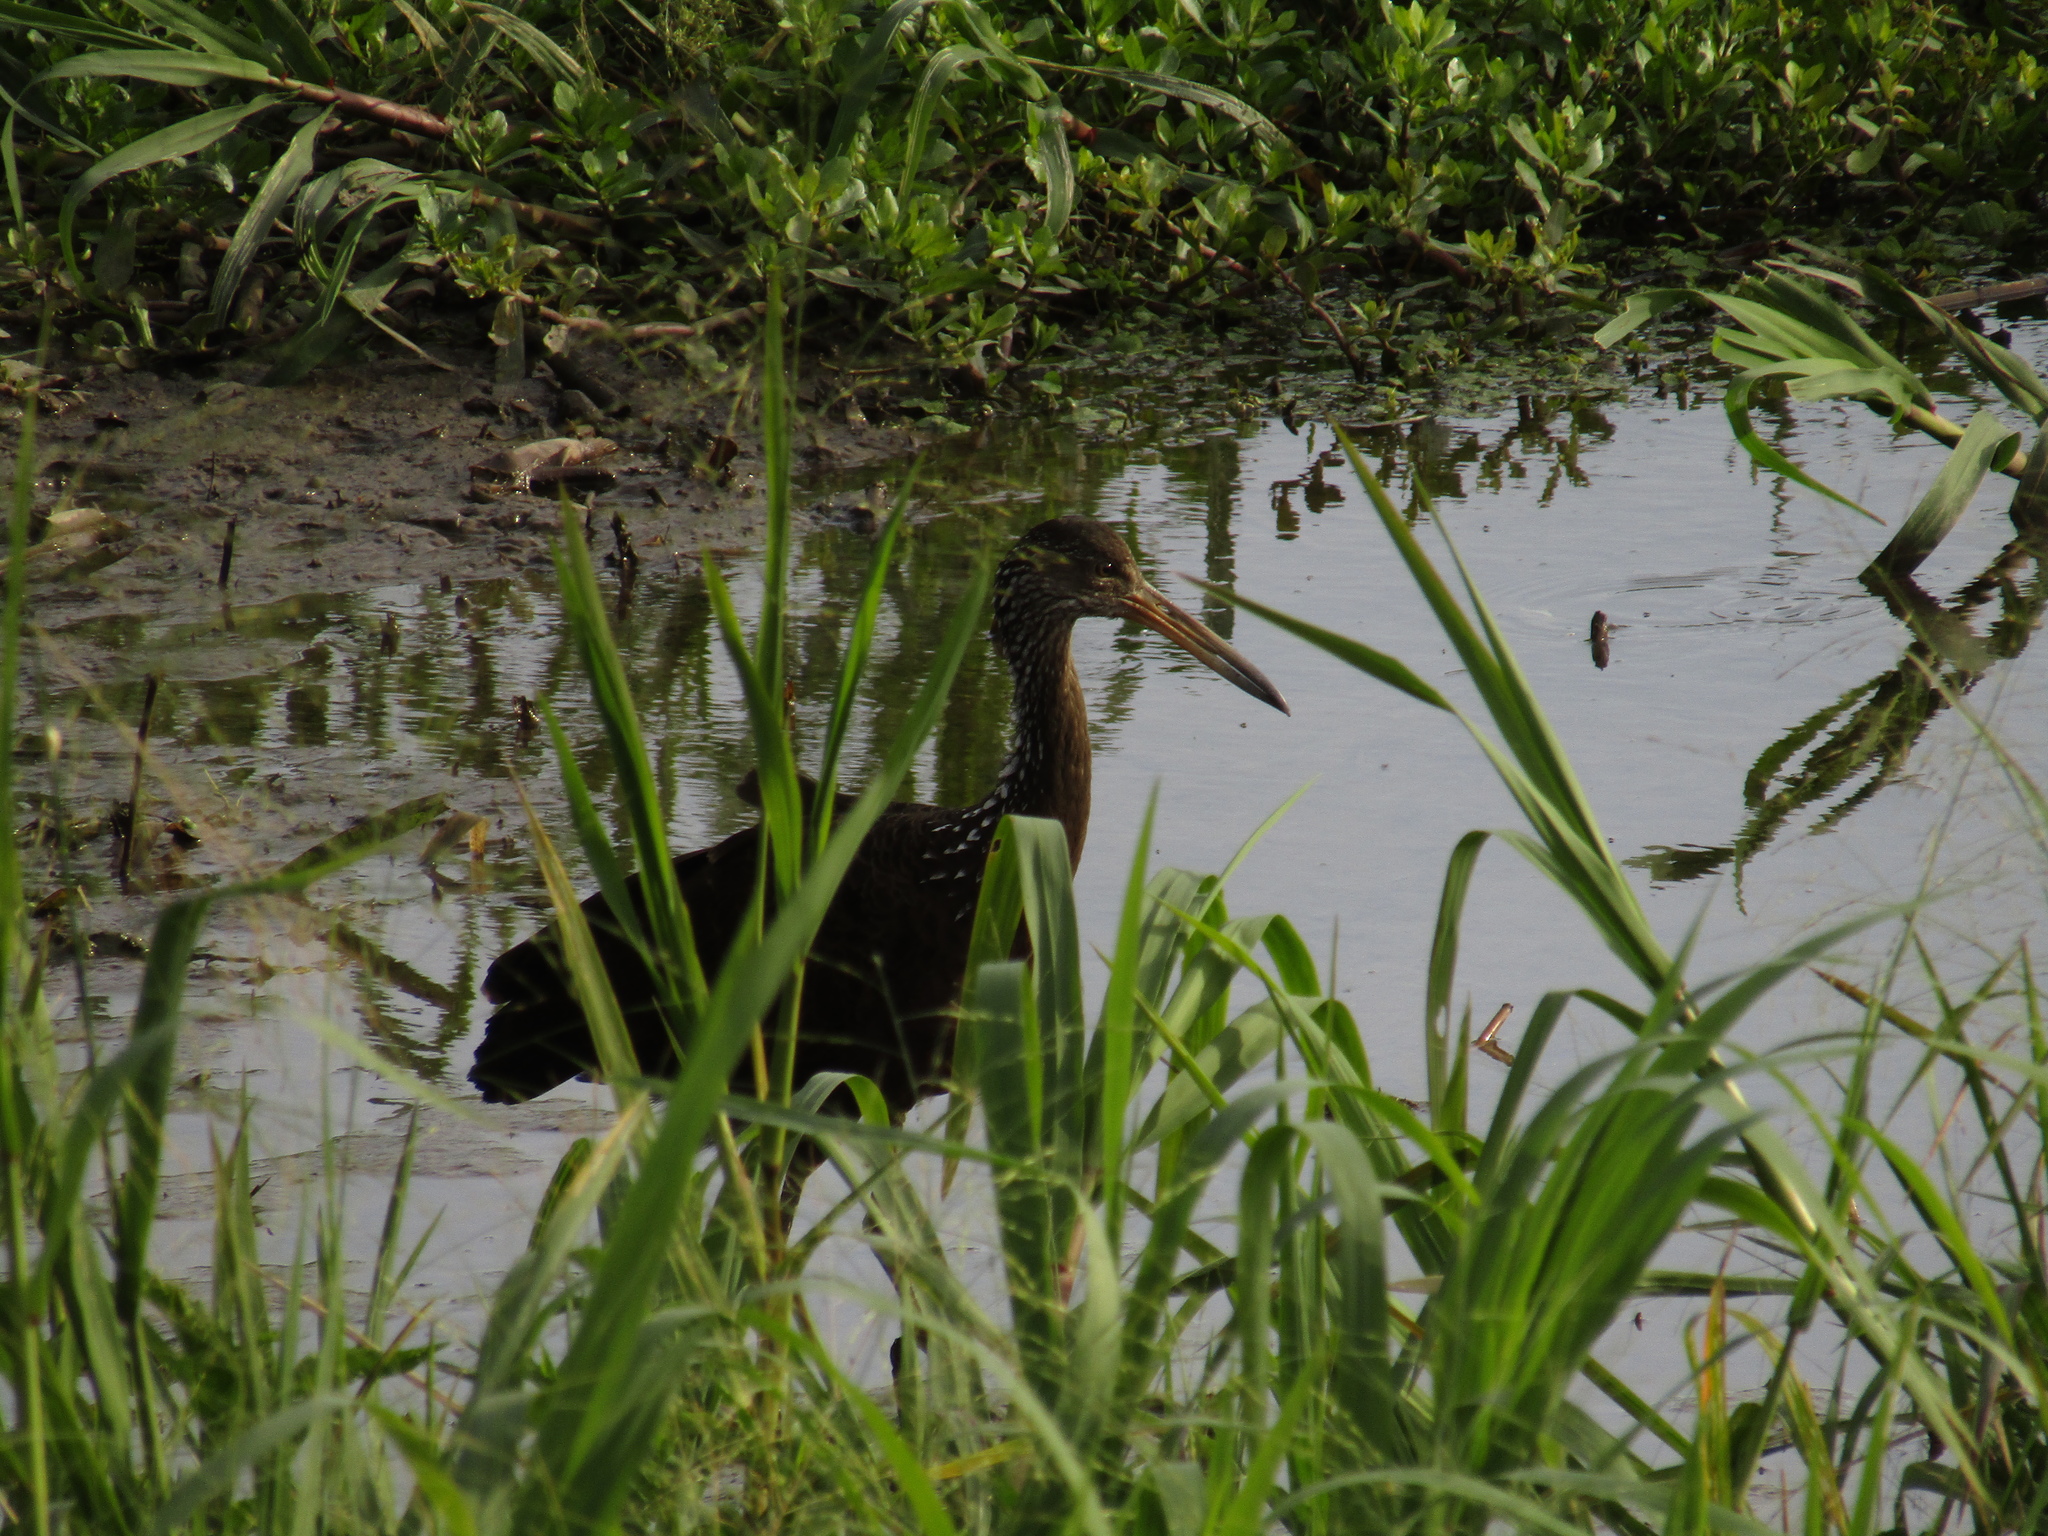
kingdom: Animalia
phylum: Chordata
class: Aves
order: Gruiformes
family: Aramidae
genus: Aramus
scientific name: Aramus guarauna
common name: Limpkin
